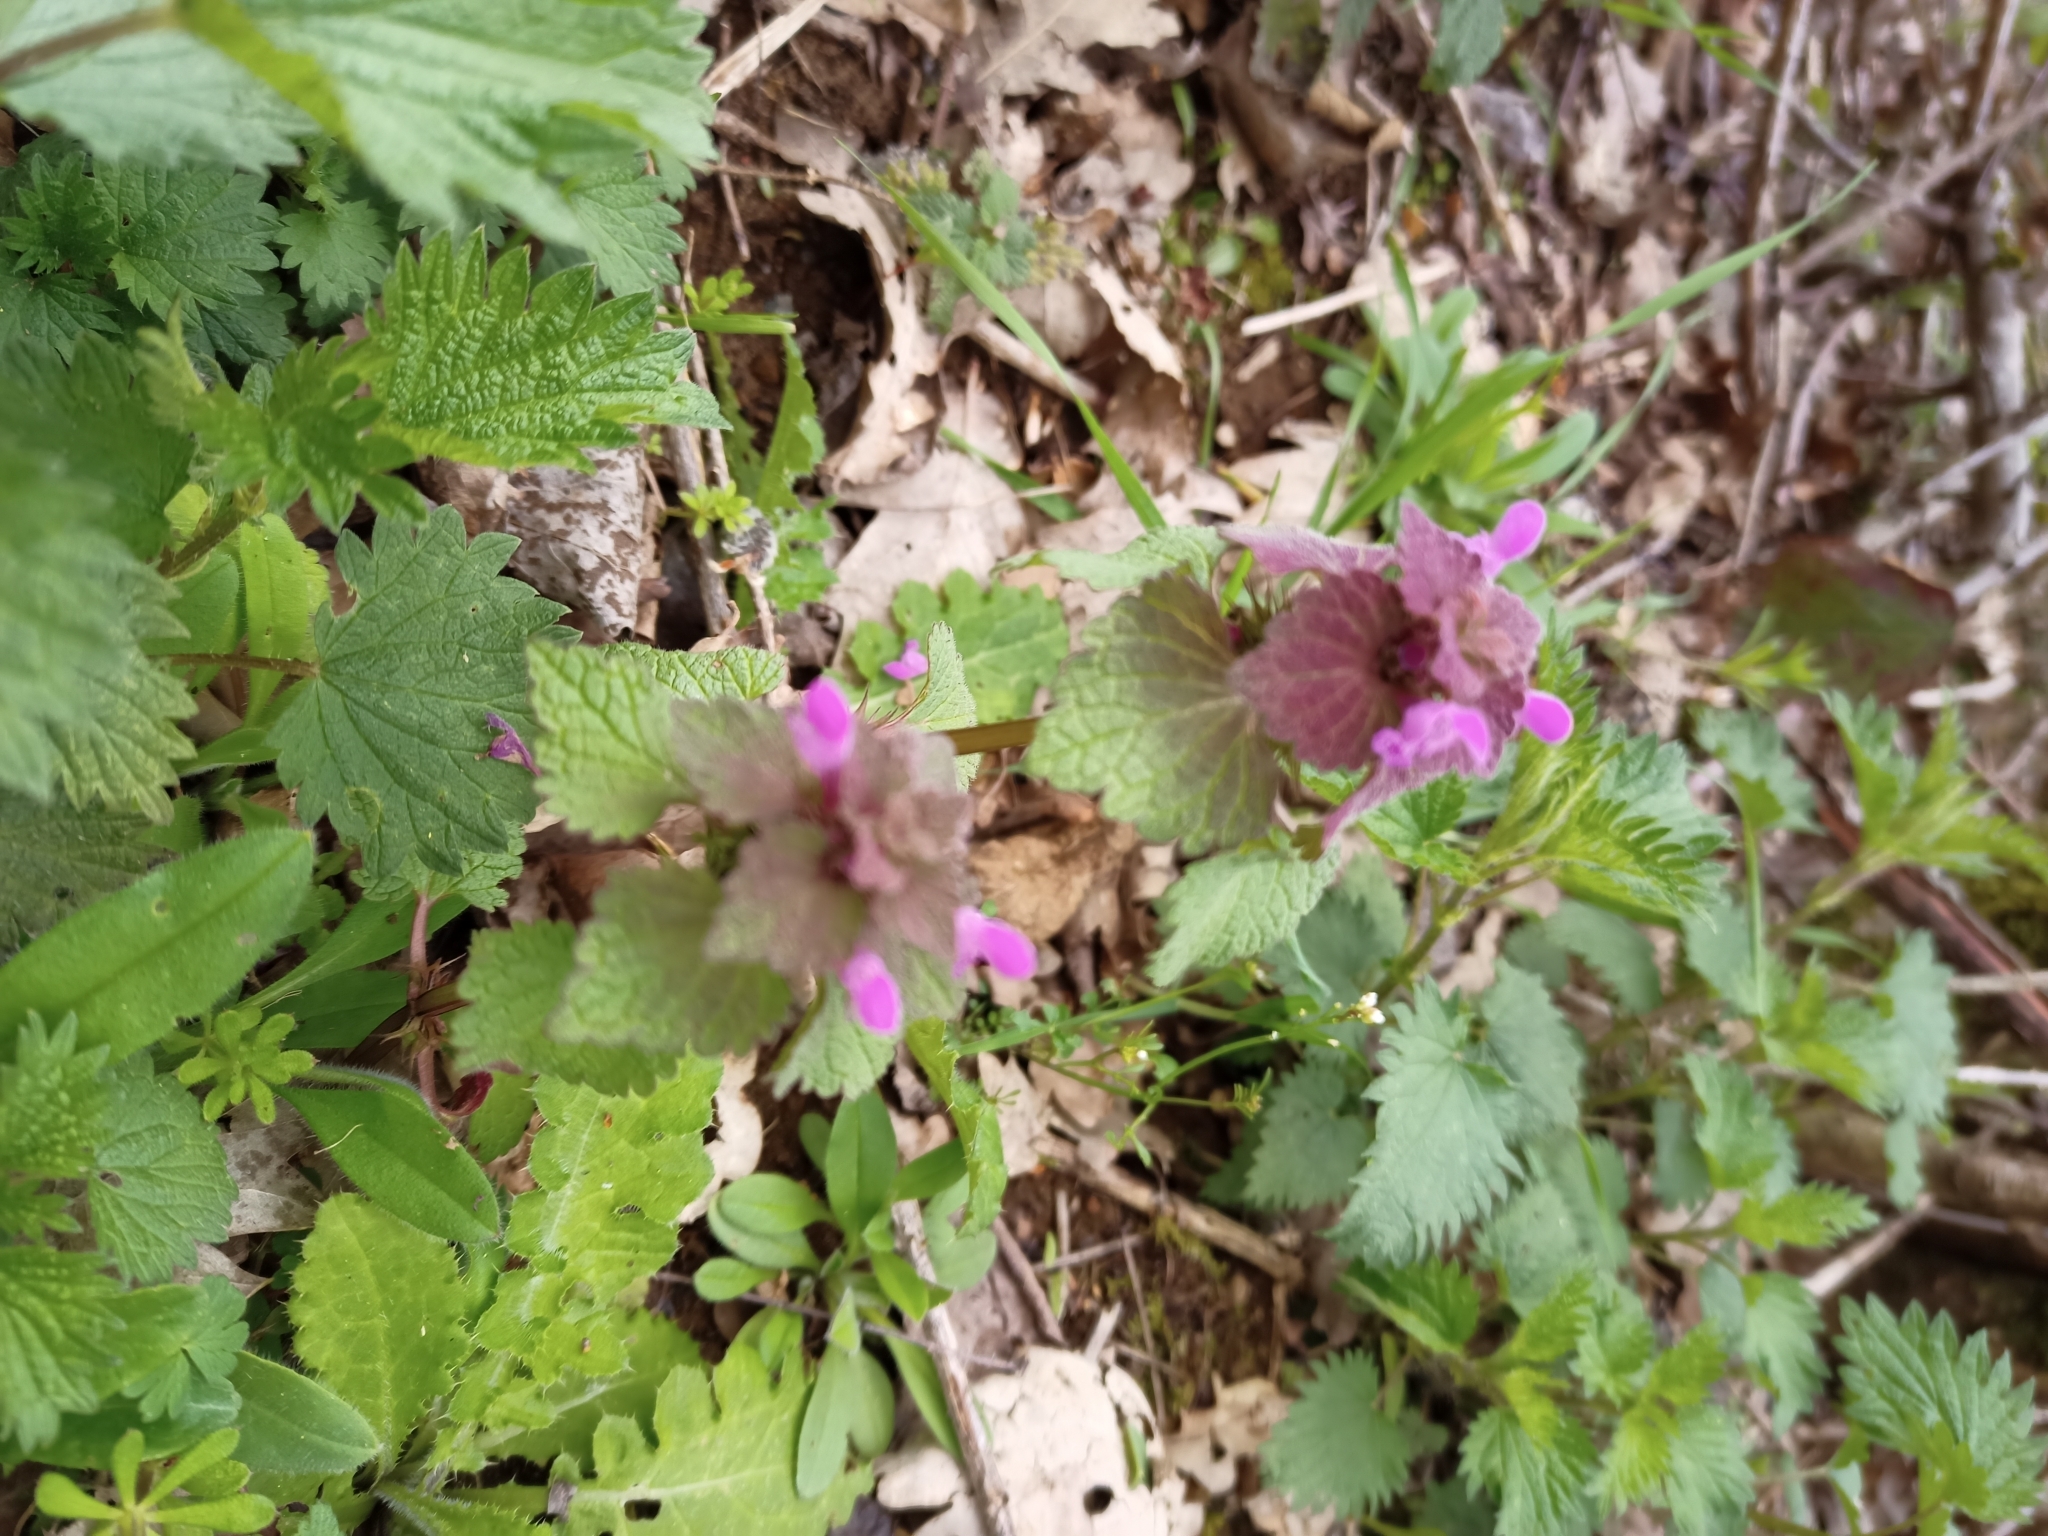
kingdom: Plantae
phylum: Tracheophyta
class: Magnoliopsida
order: Lamiales
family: Lamiaceae
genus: Lamium
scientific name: Lamium purpureum
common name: Red dead-nettle
